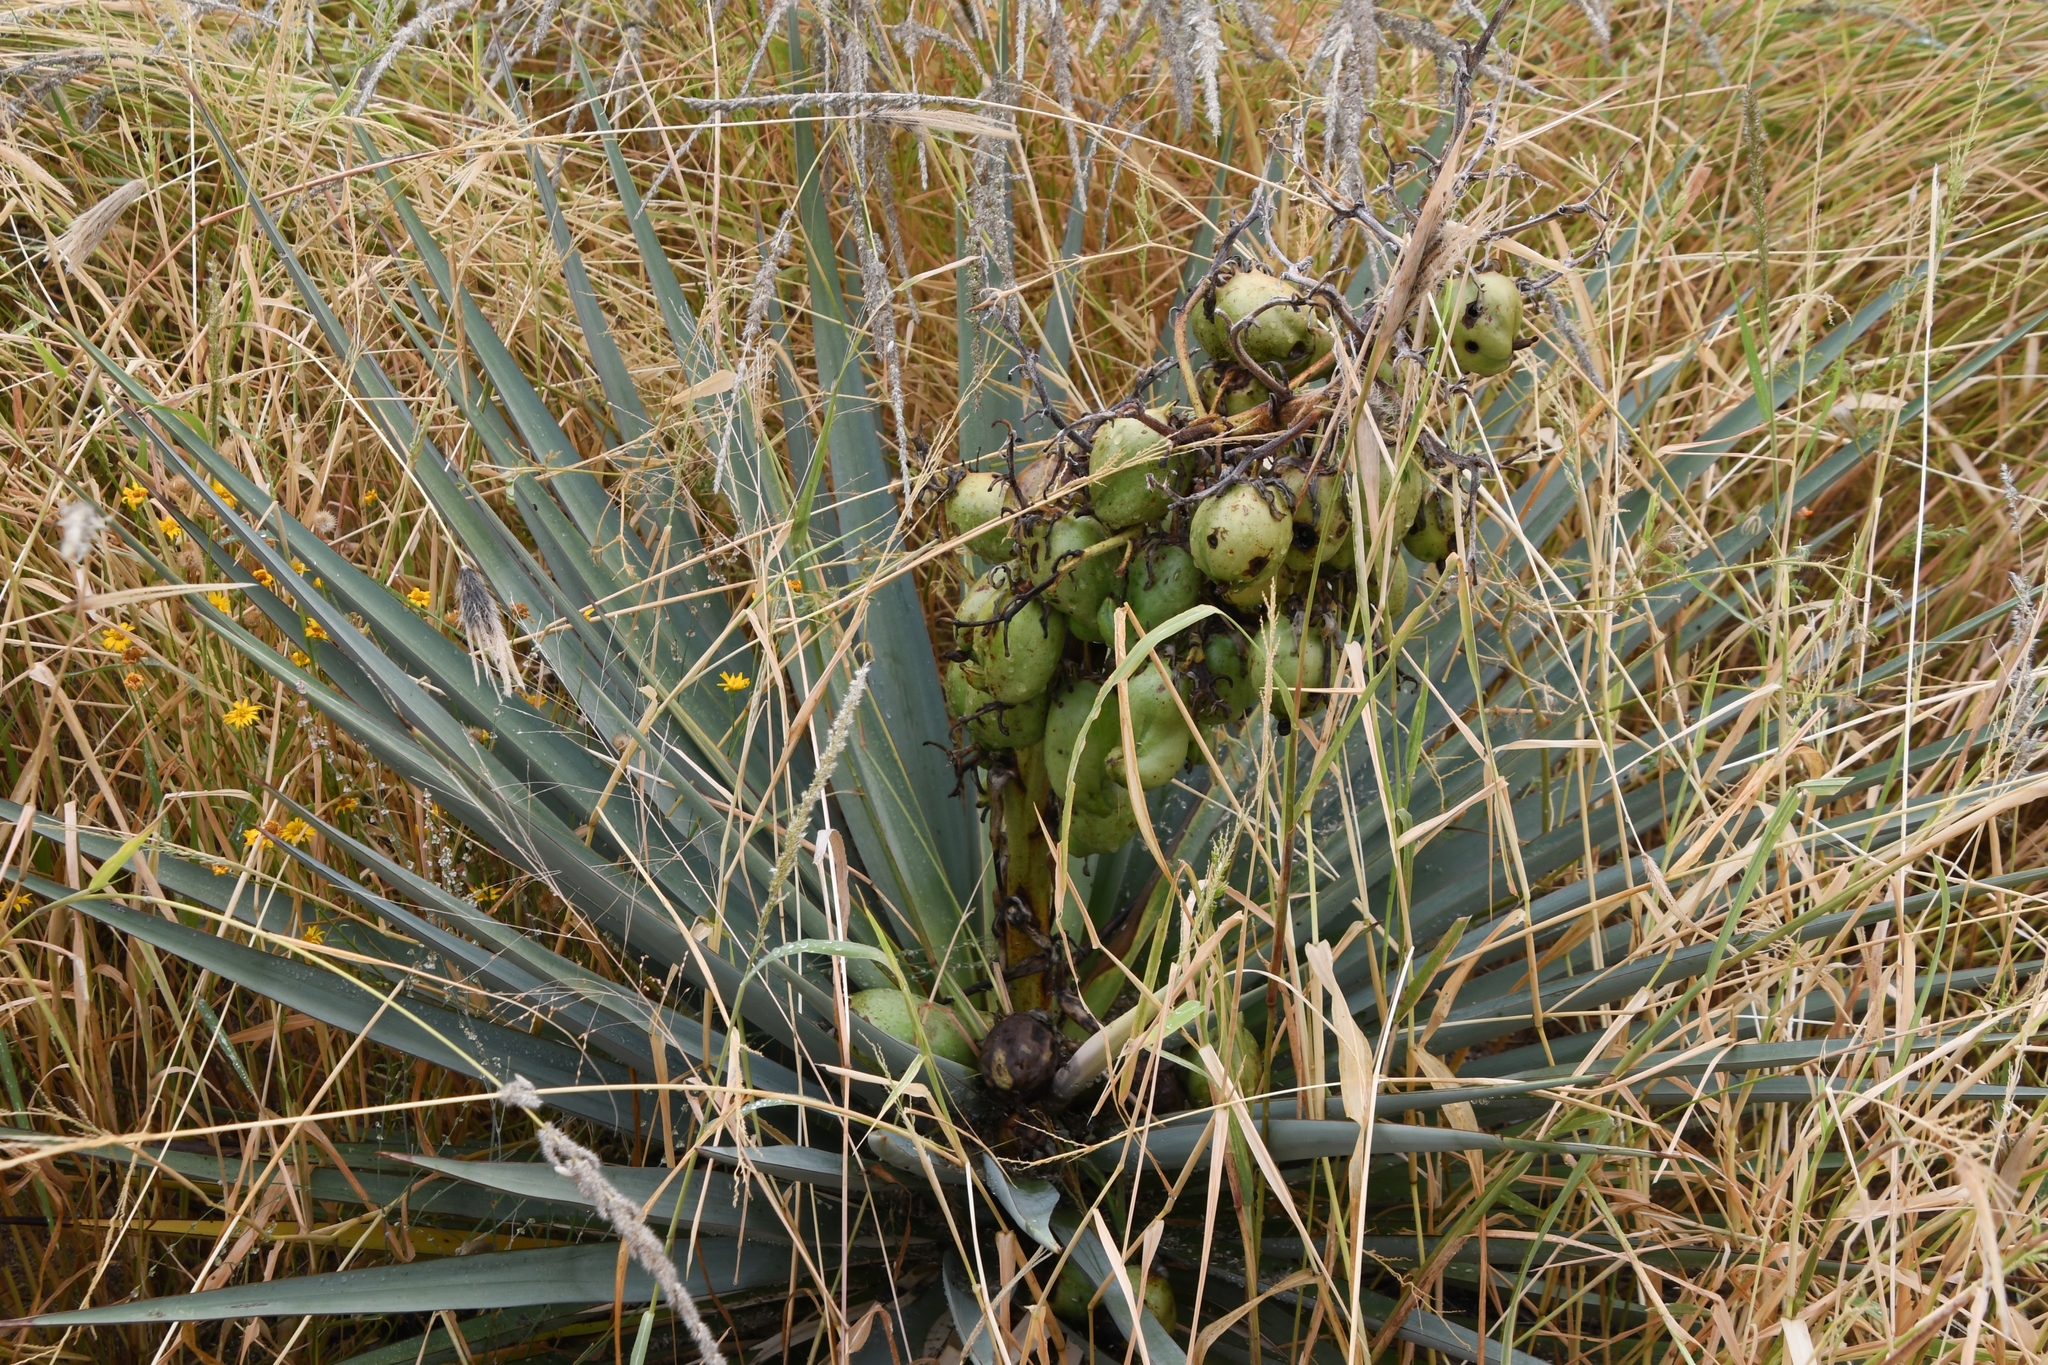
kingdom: Plantae
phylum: Tracheophyta
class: Liliopsida
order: Asparagales
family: Asparagaceae
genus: Yucca
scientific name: Yucca madrensis
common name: Hoary yucca
